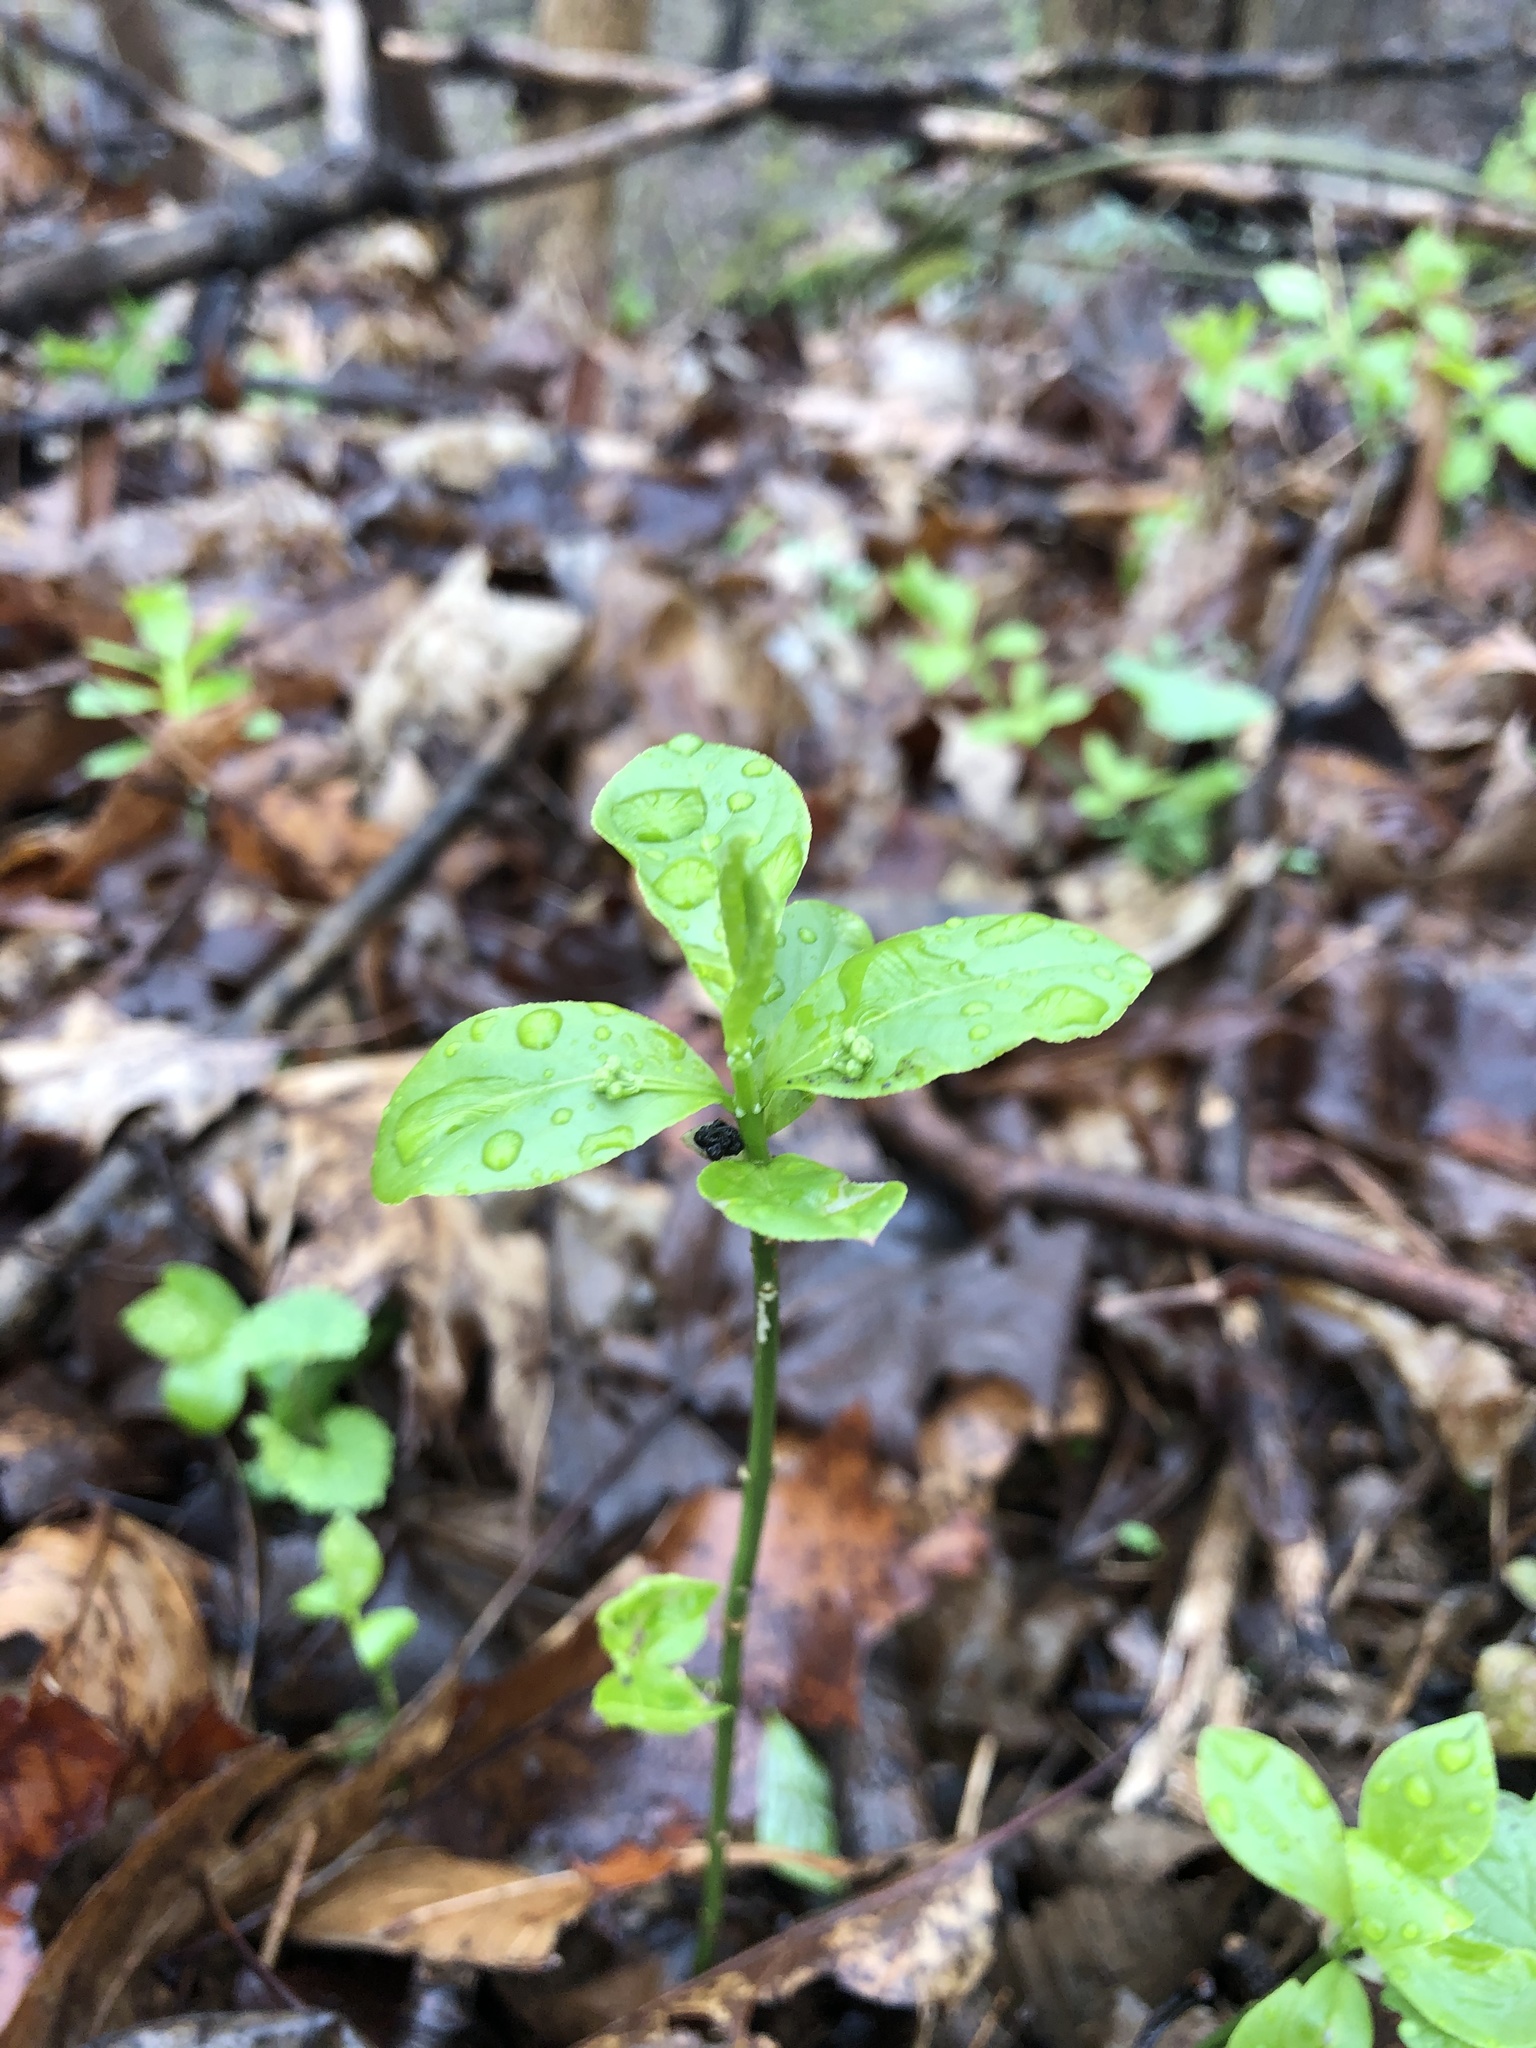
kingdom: Plantae
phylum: Tracheophyta
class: Magnoliopsida
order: Celastrales
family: Celastraceae
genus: Euonymus
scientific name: Euonymus obovatus
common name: Running strawberry-bush
